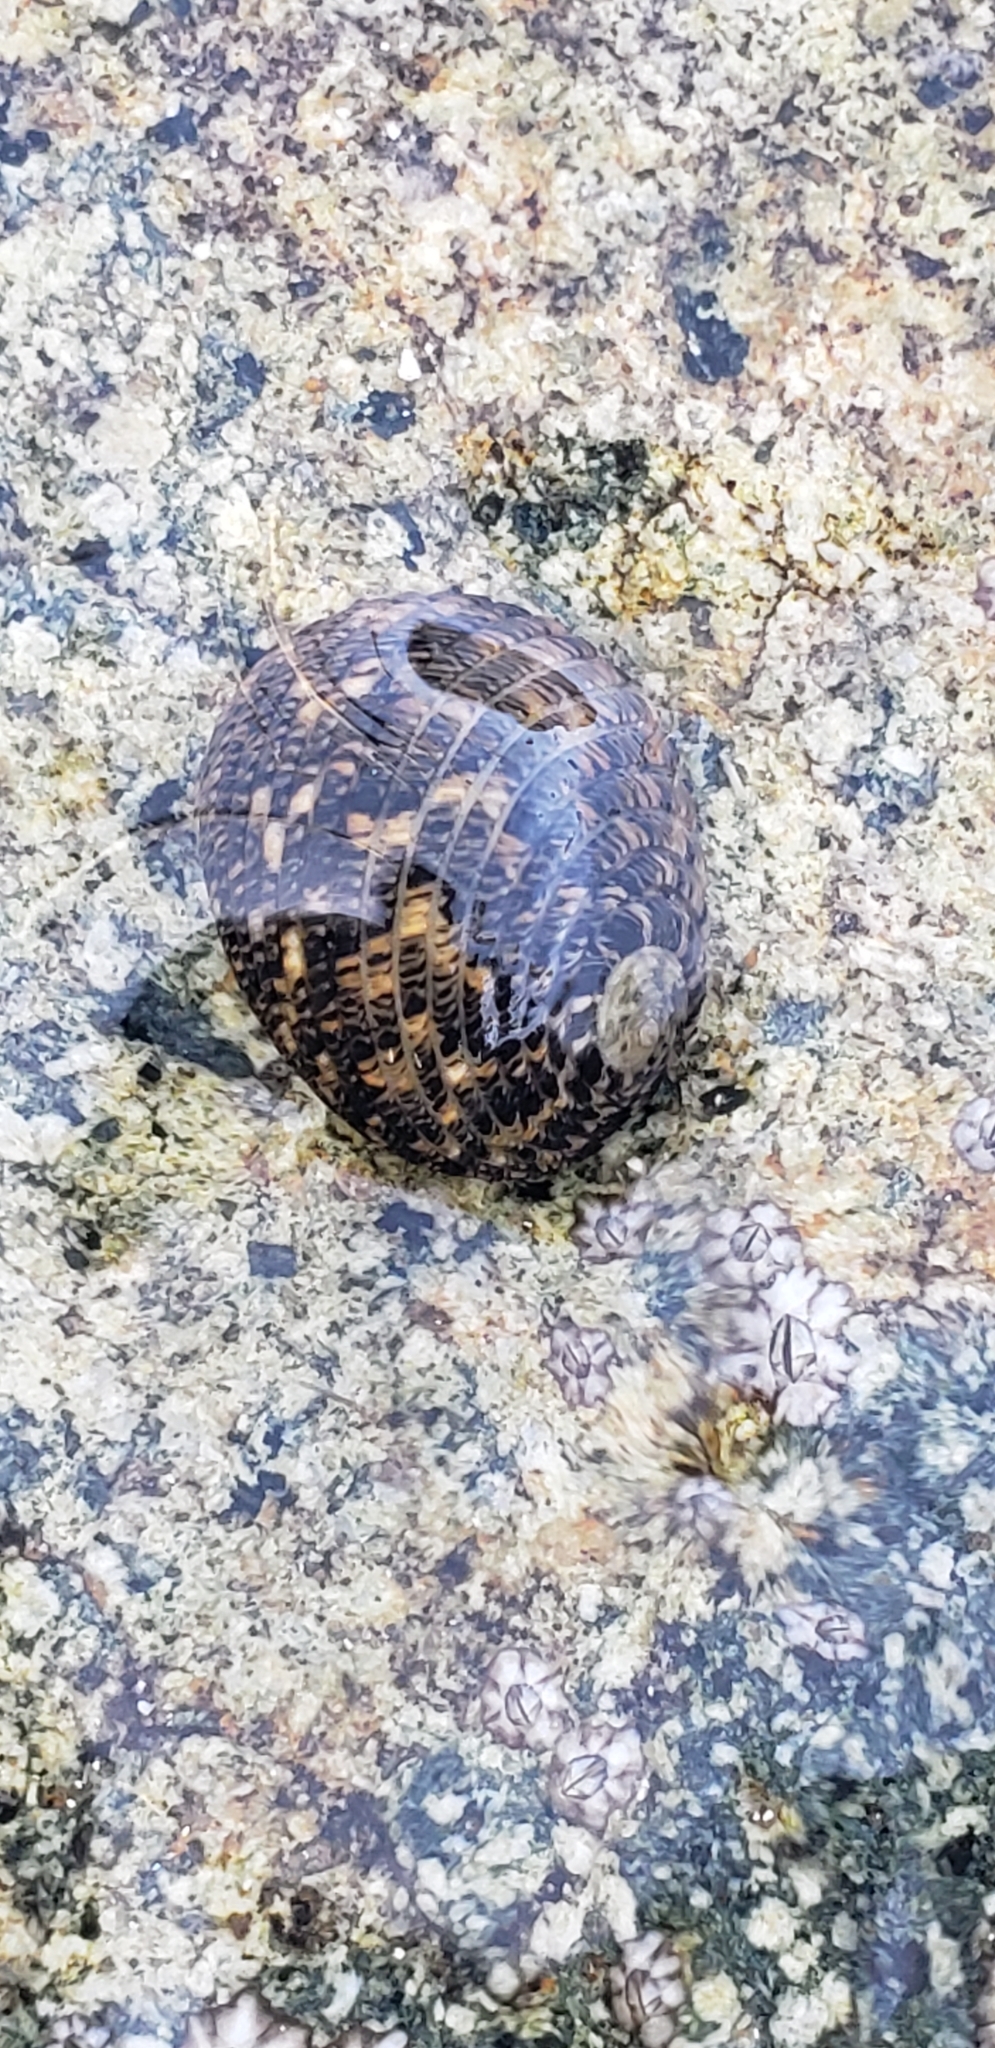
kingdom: Animalia
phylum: Mollusca
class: Gastropoda
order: Cycloneritida
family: Neritidae
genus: Nerita
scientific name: Nerita tessellata
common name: Checkered nerite
